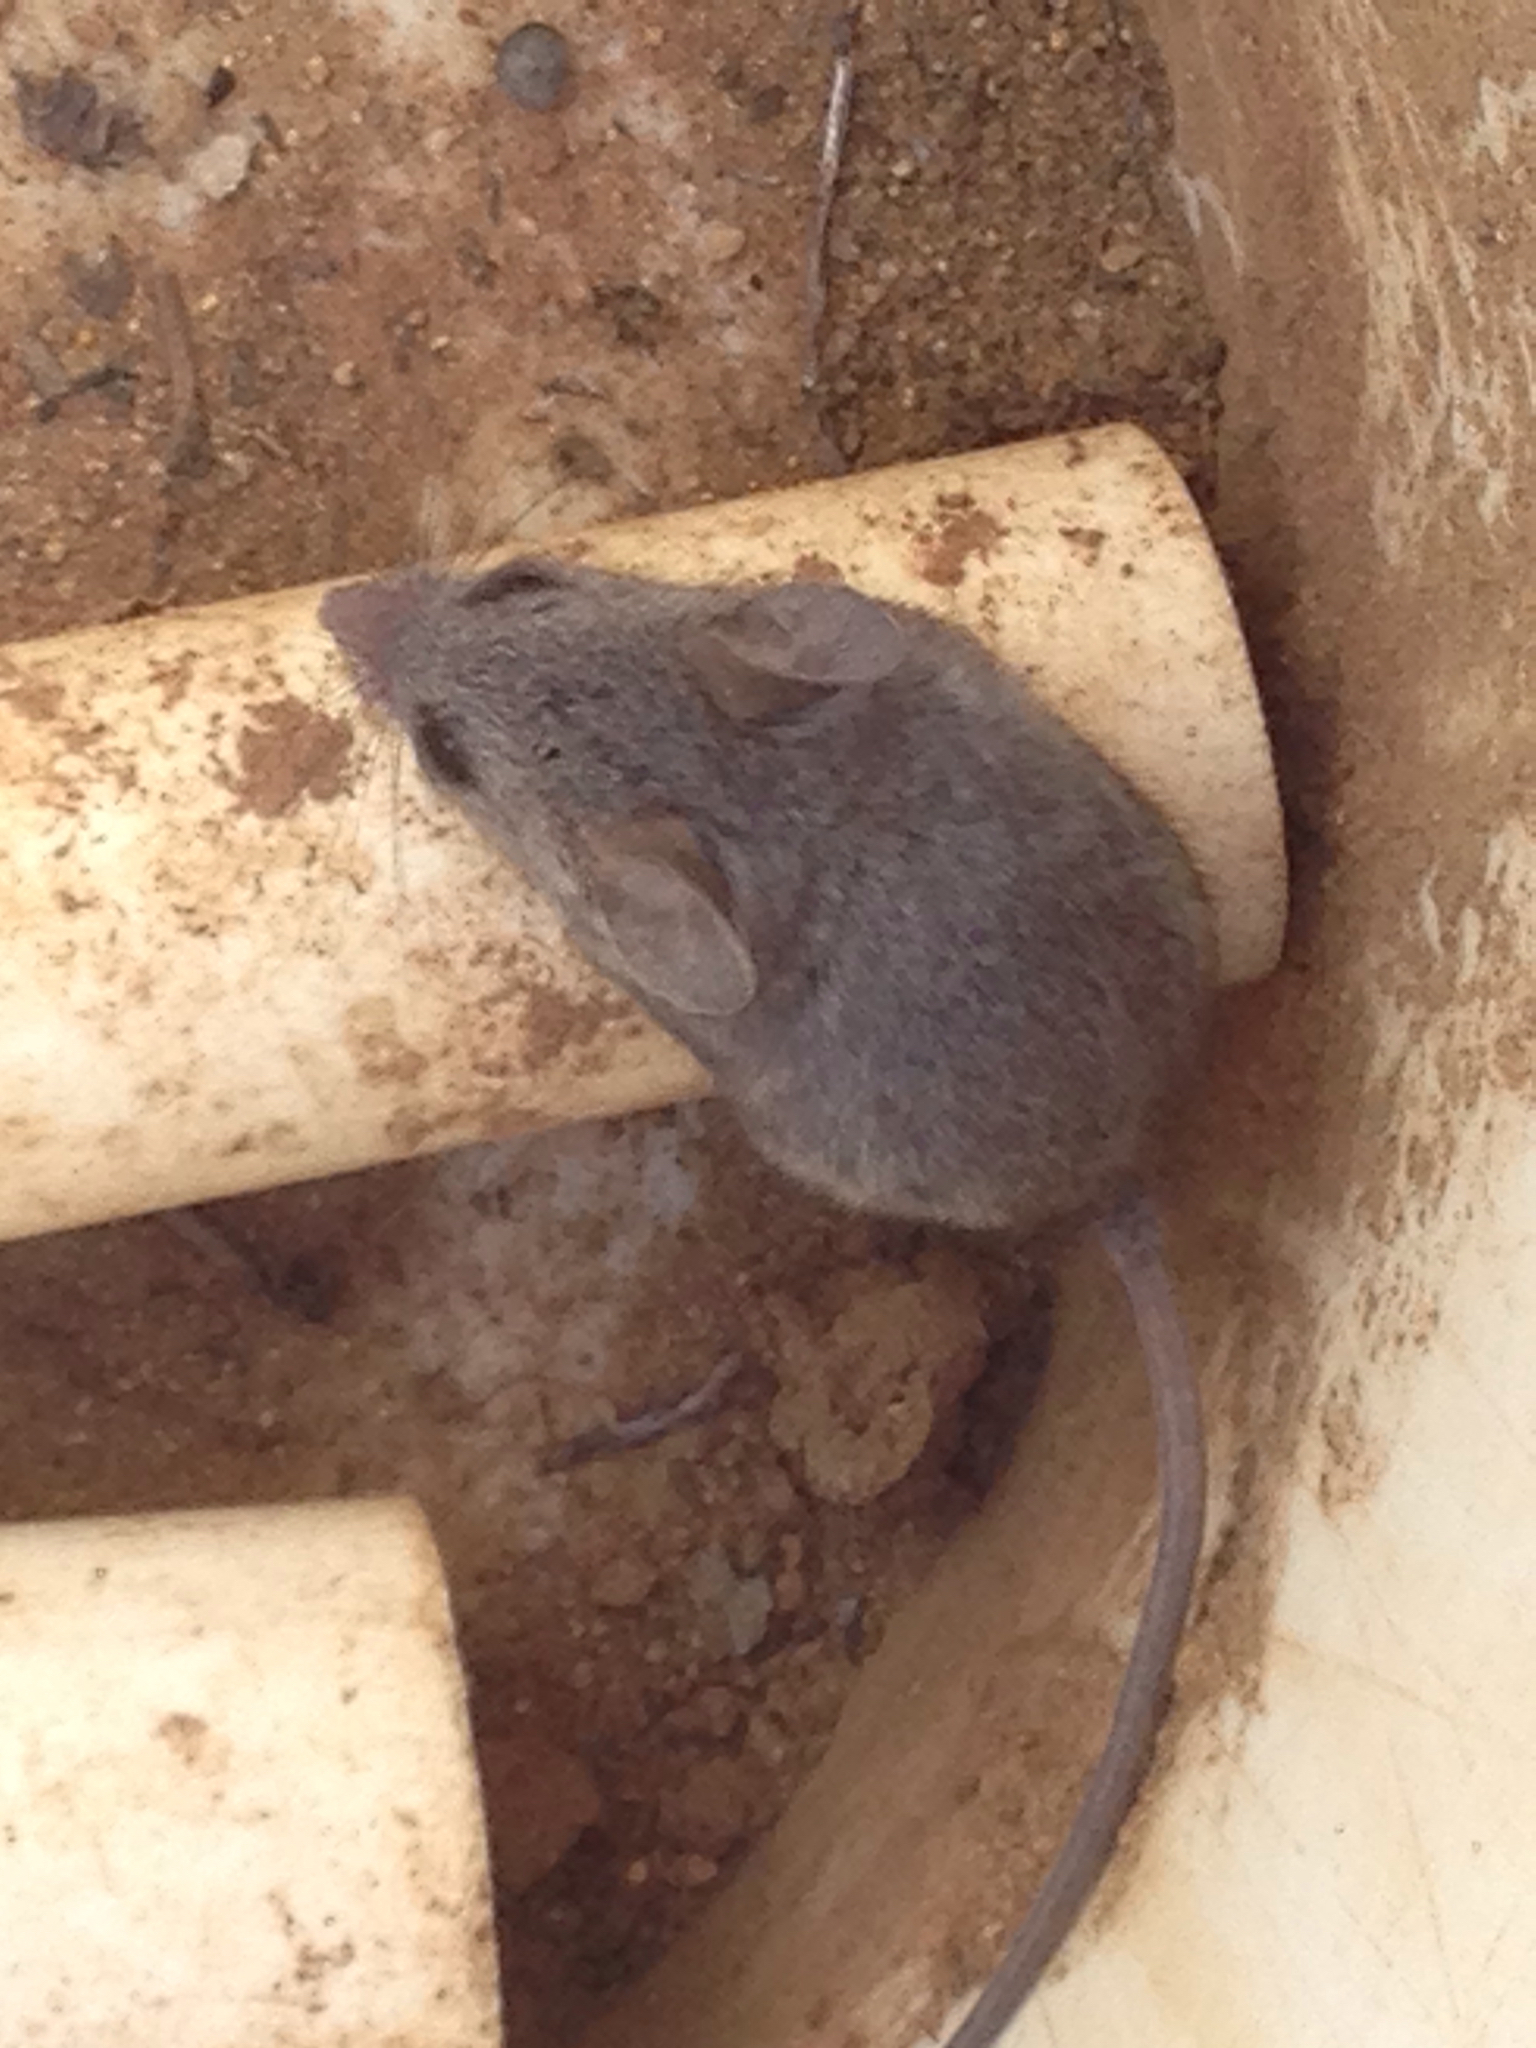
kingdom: Animalia
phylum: Chordata
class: Mammalia
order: Rodentia
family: Cricetidae
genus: Peromyscus
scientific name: Peromyscus fraterculus
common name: Northern baja deermouse
